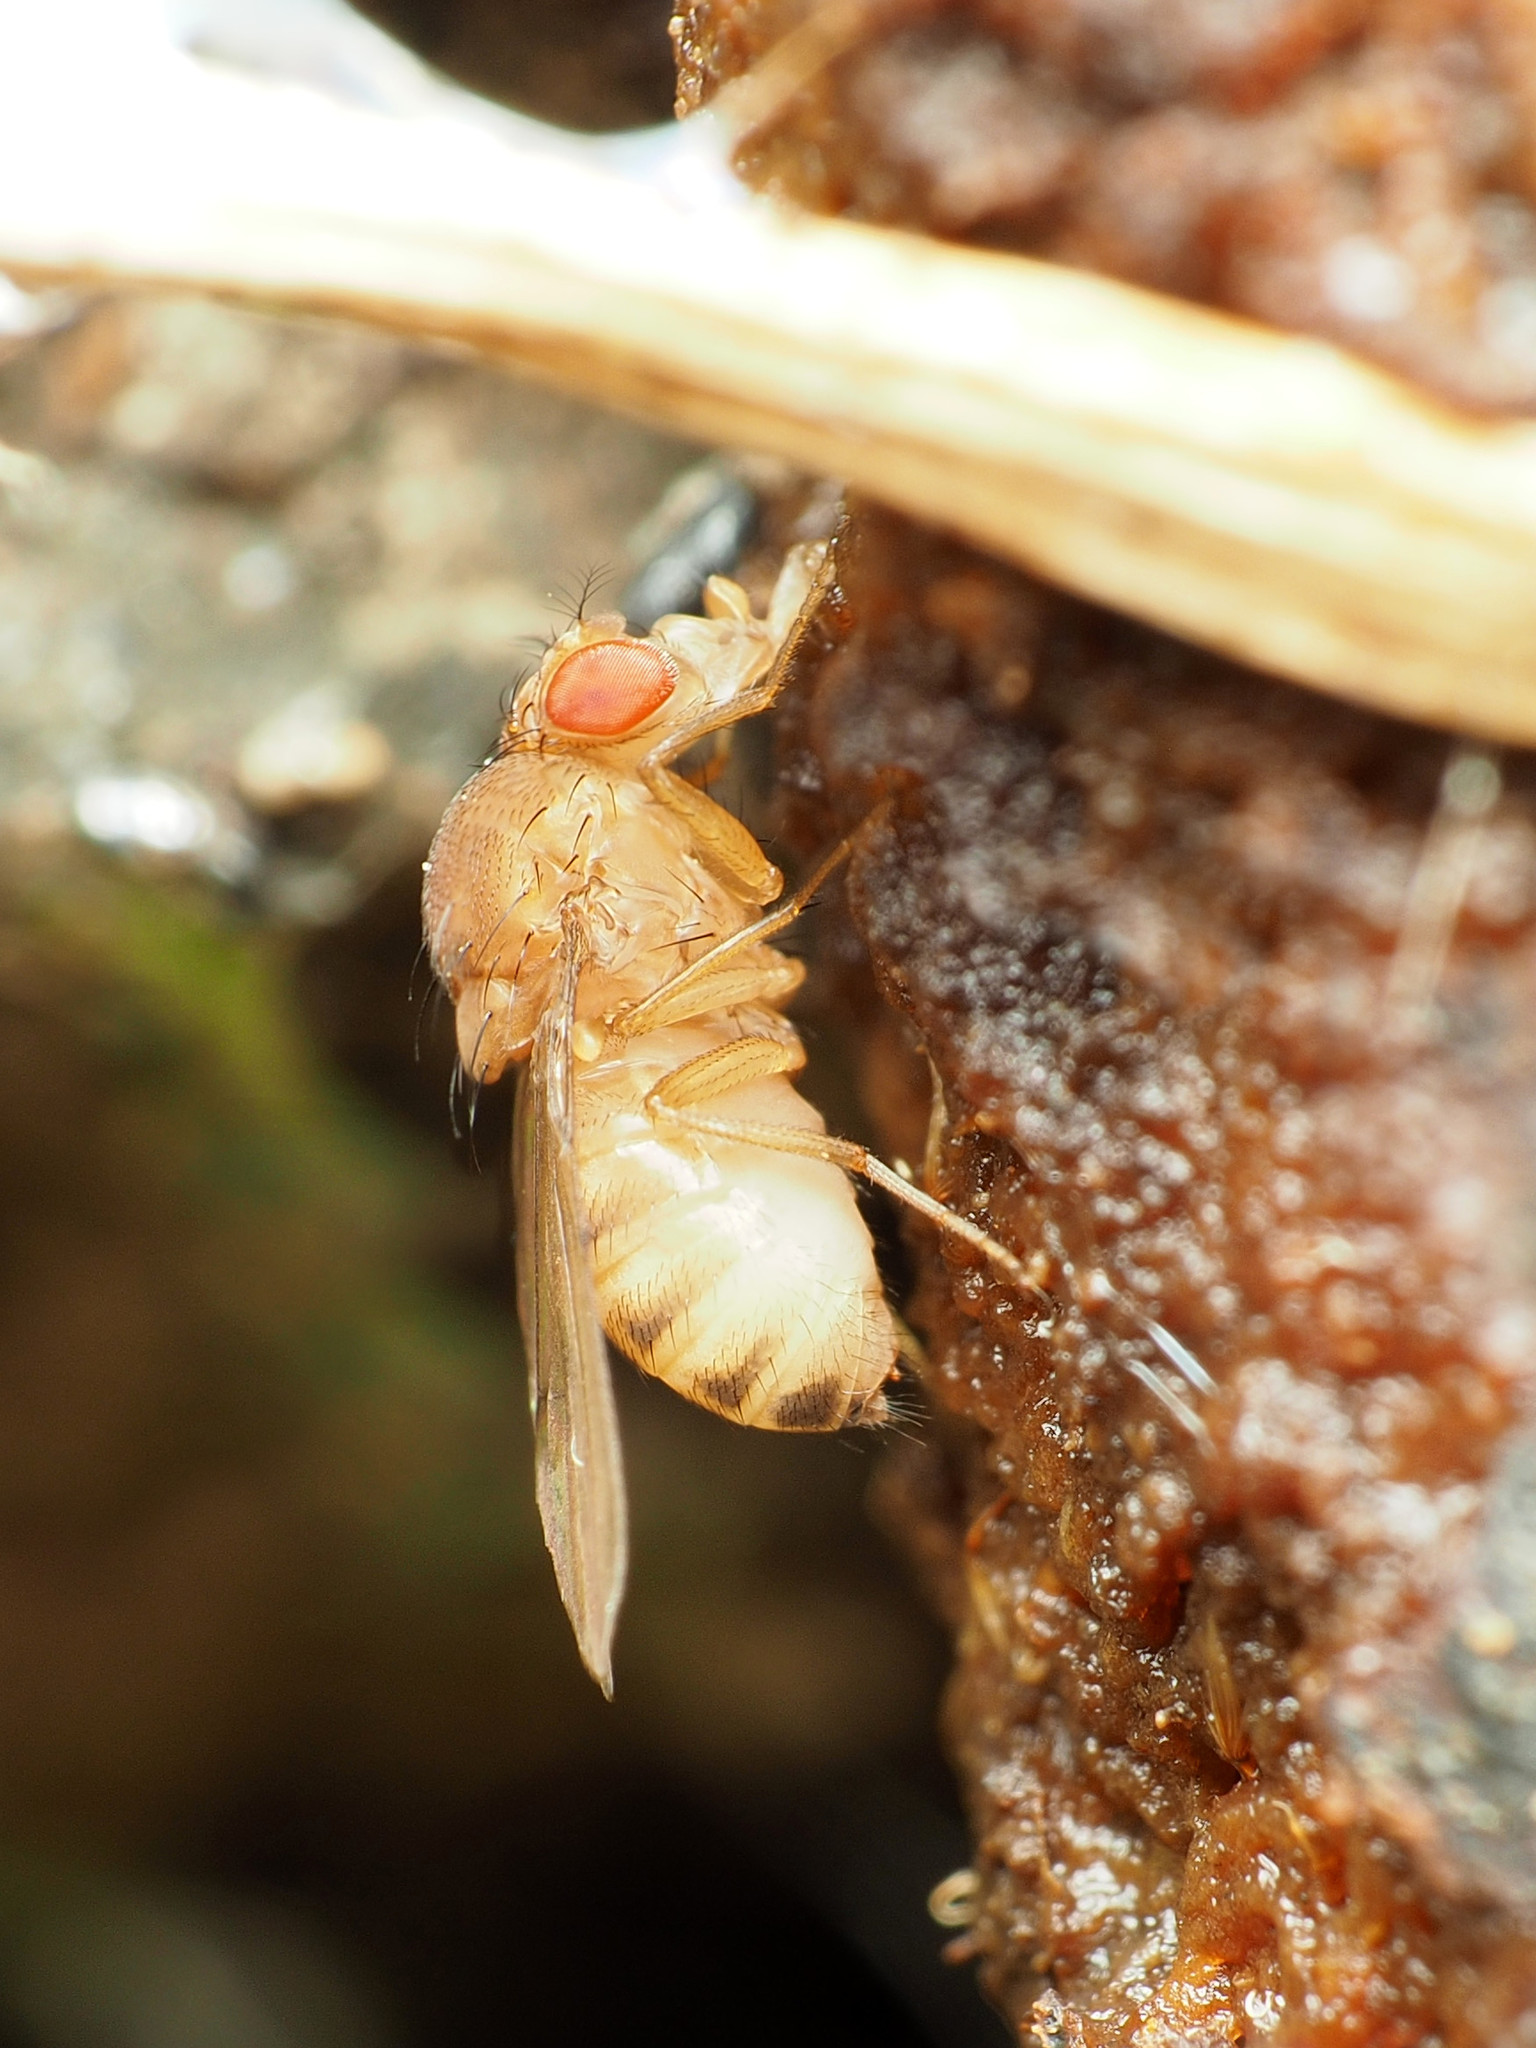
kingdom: Animalia
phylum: Arthropoda
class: Insecta
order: Diptera
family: Drosophilidae
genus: Drosophila
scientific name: Drosophila immigrans
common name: Pomace fly
